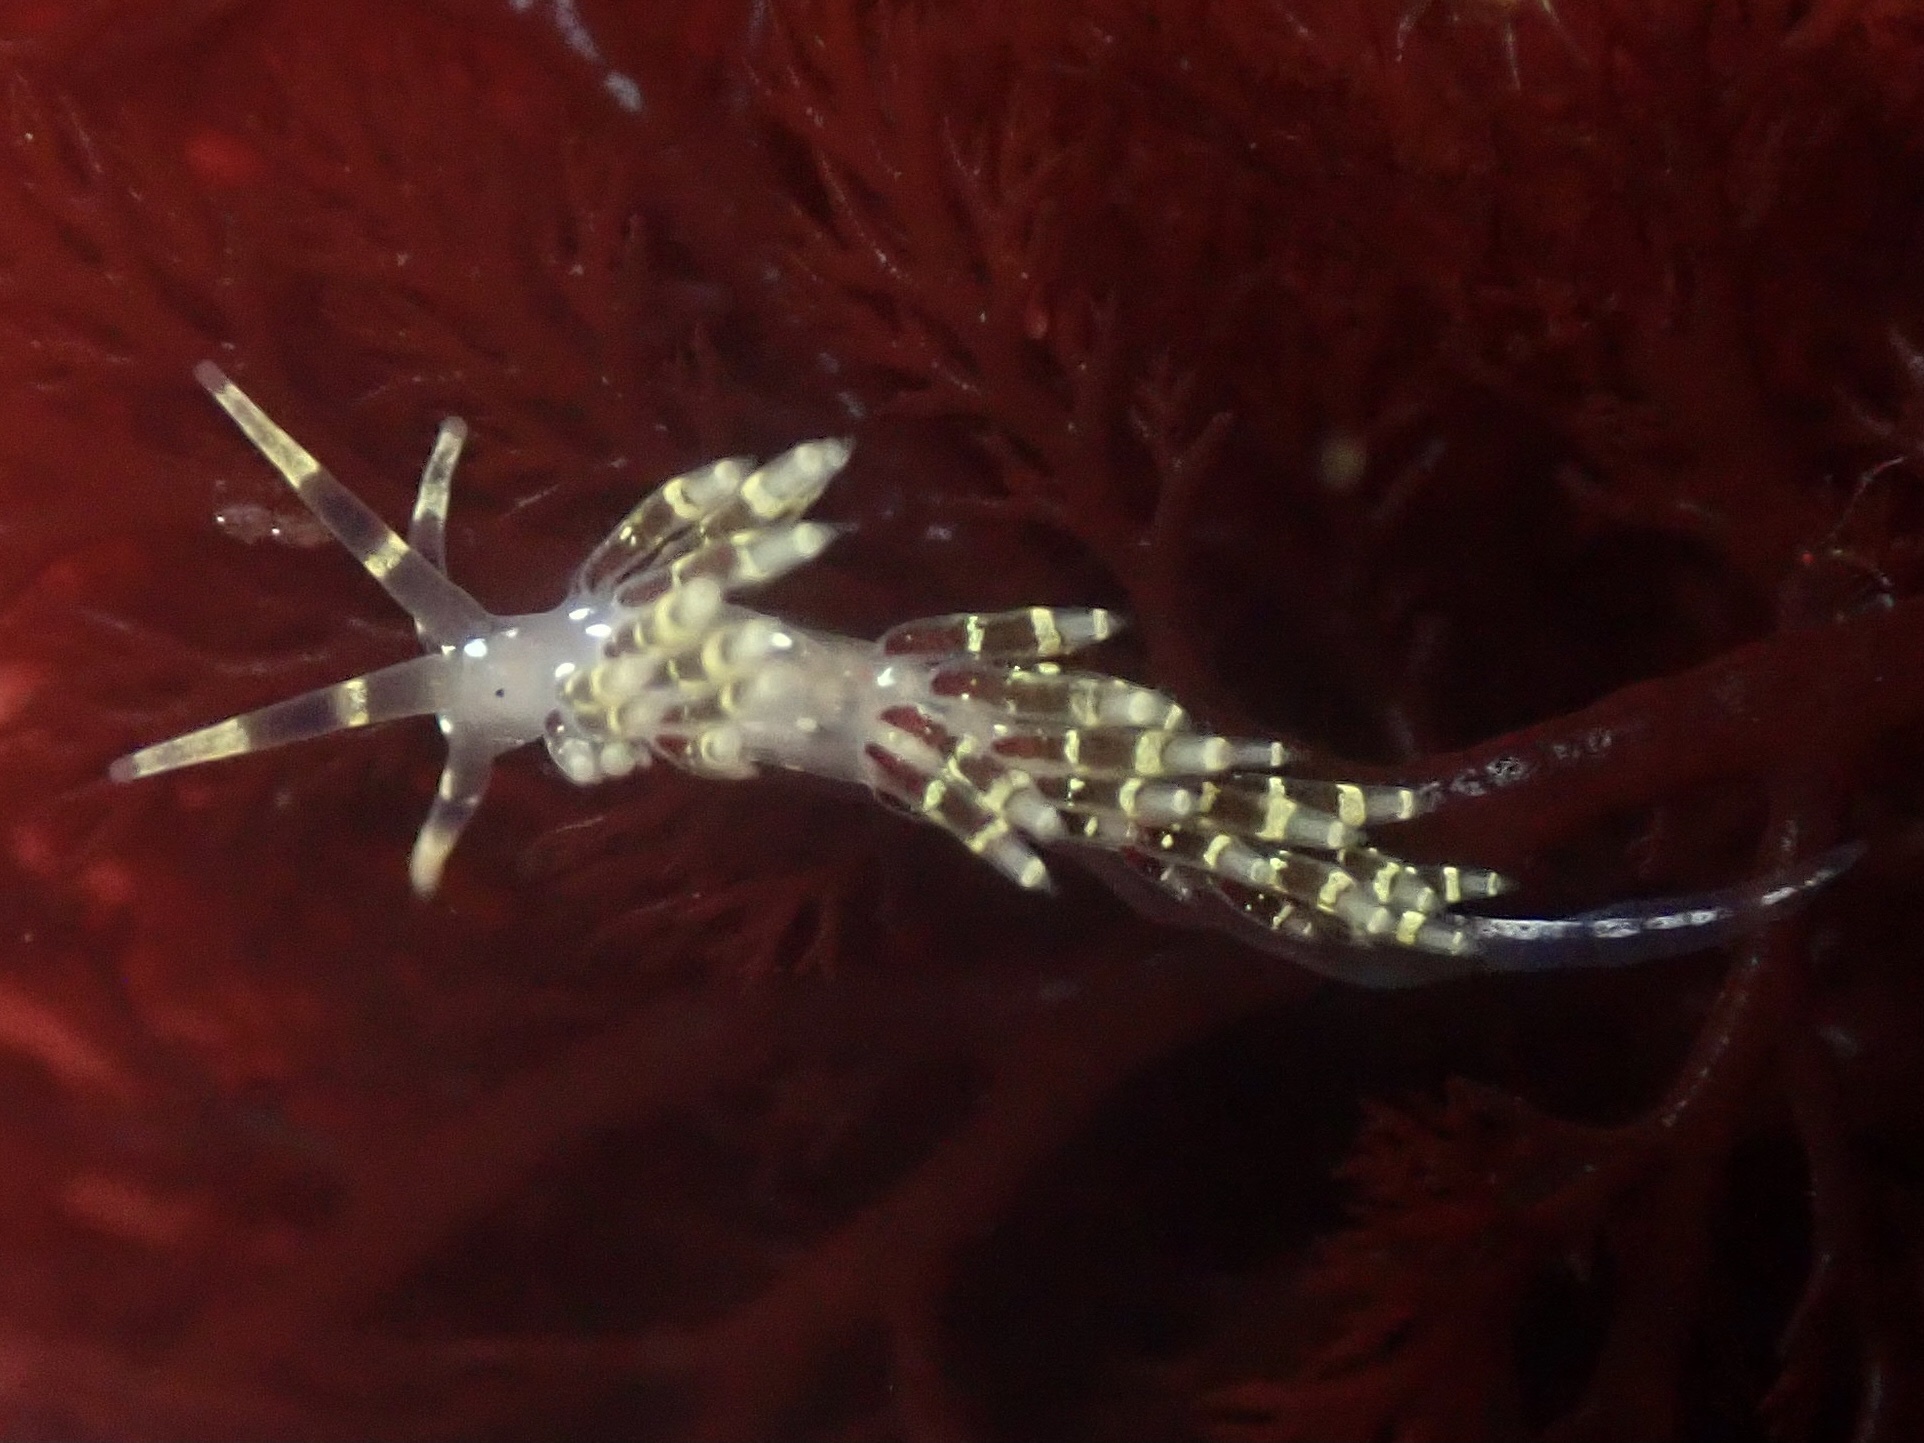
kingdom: Animalia
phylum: Mollusca
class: Gastropoda
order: Nudibranchia
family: Abronicidae
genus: Abronica
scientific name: Abronica abronia
